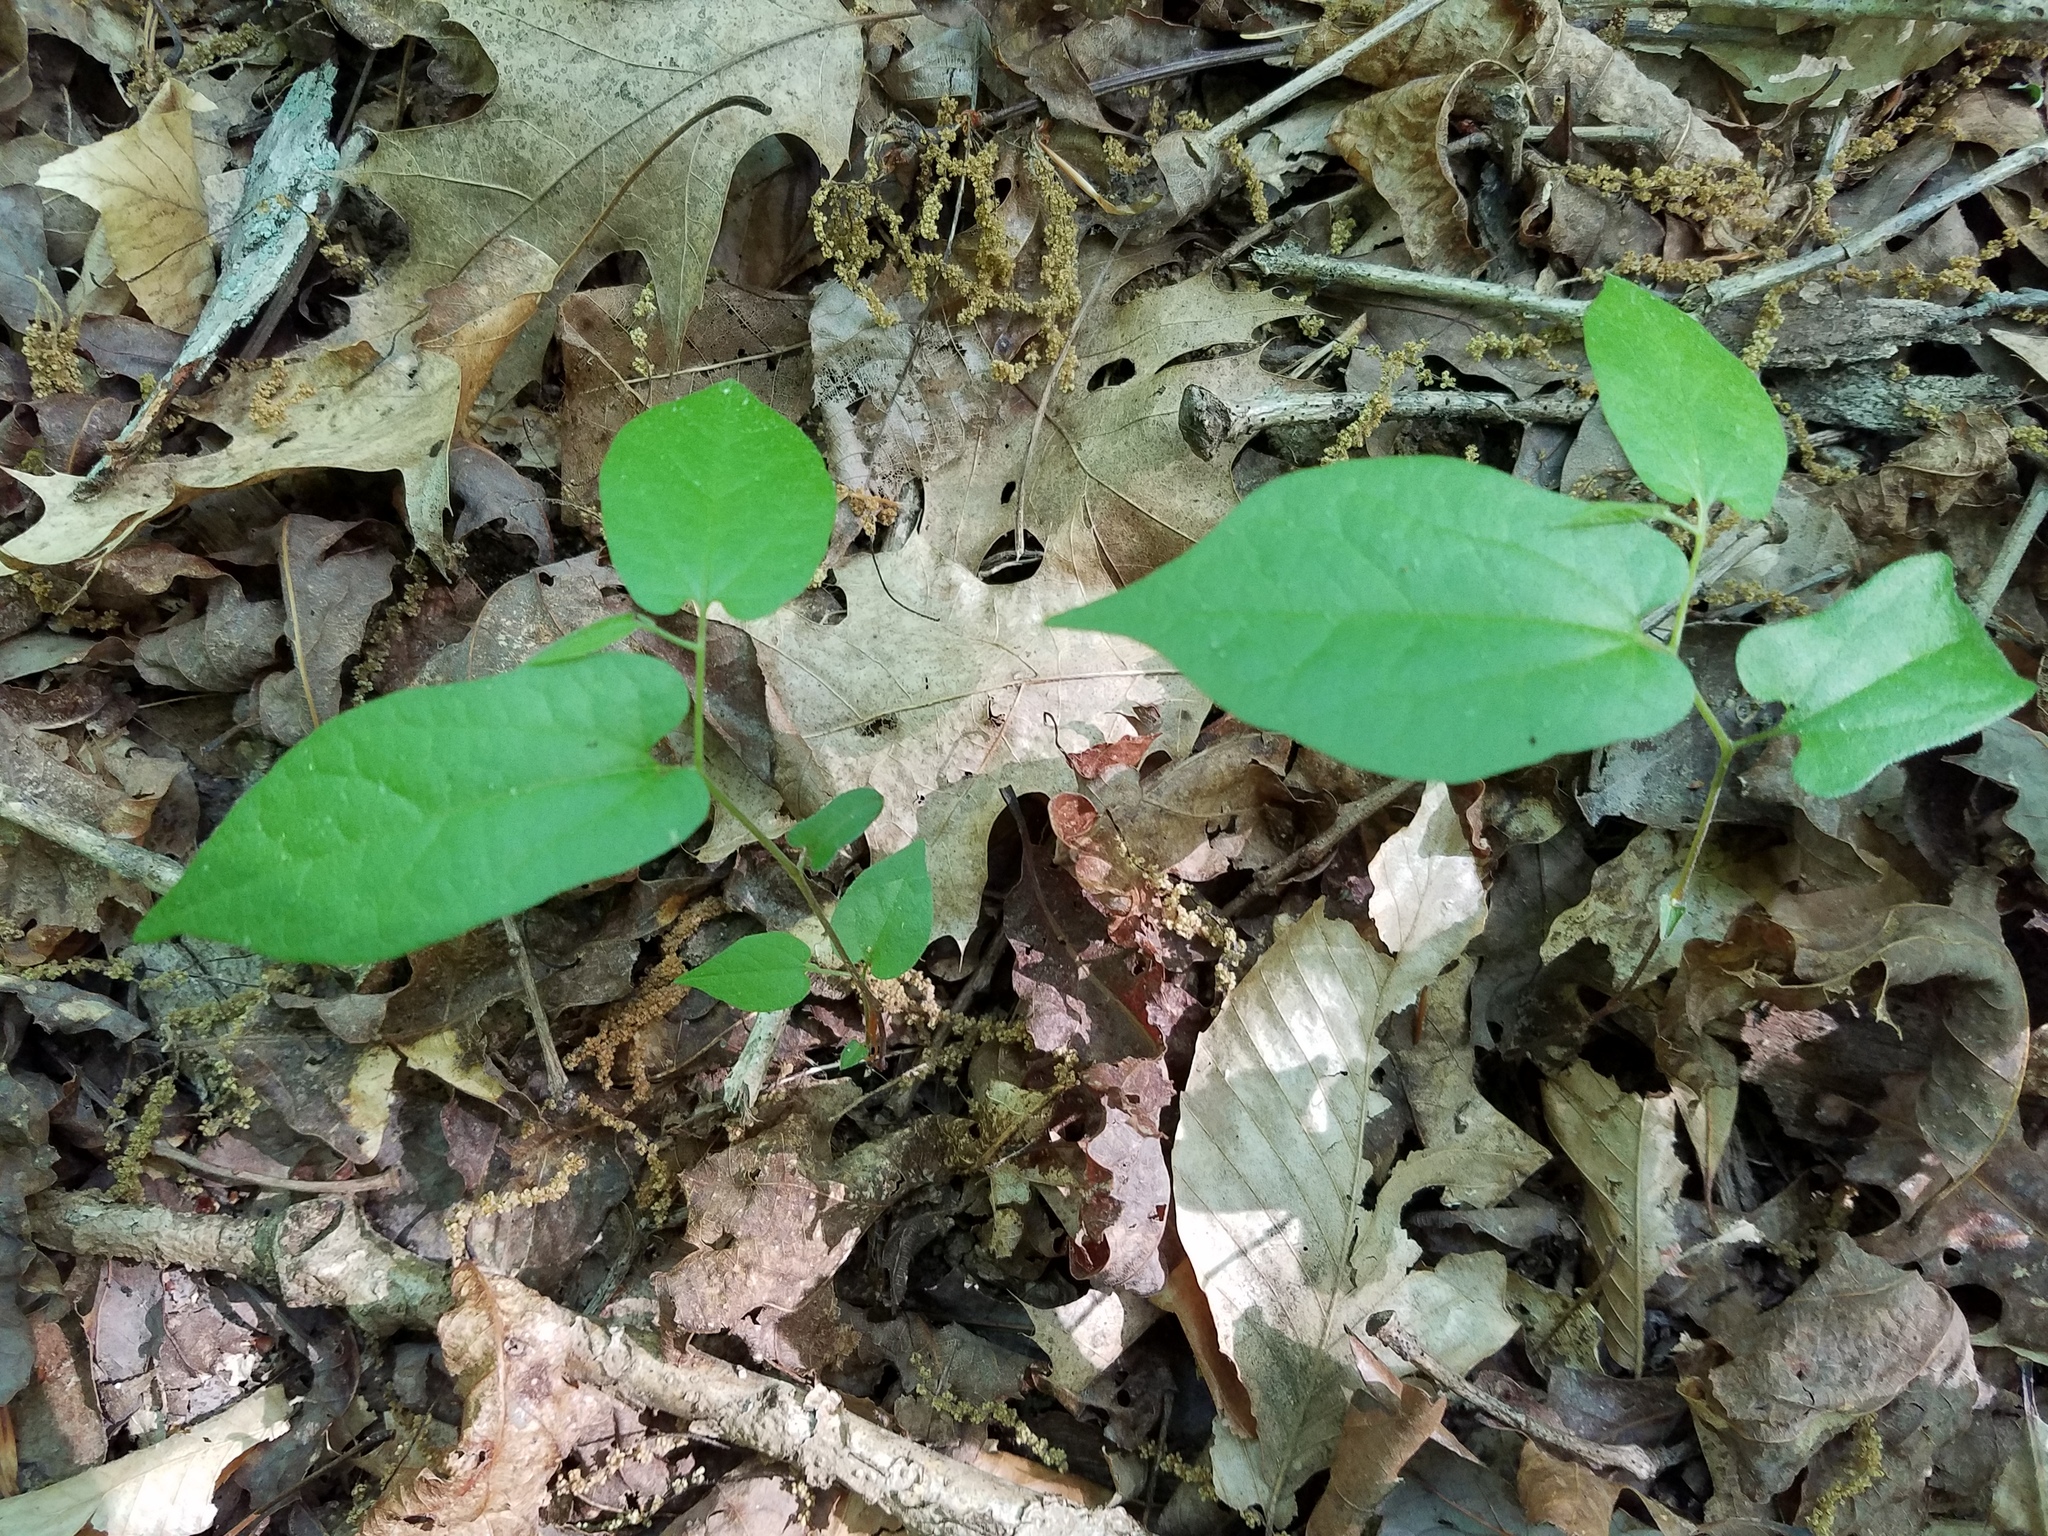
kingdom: Plantae
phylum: Tracheophyta
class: Magnoliopsida
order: Piperales
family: Aristolochiaceae
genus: Endodeca
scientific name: Endodeca serpentaria
